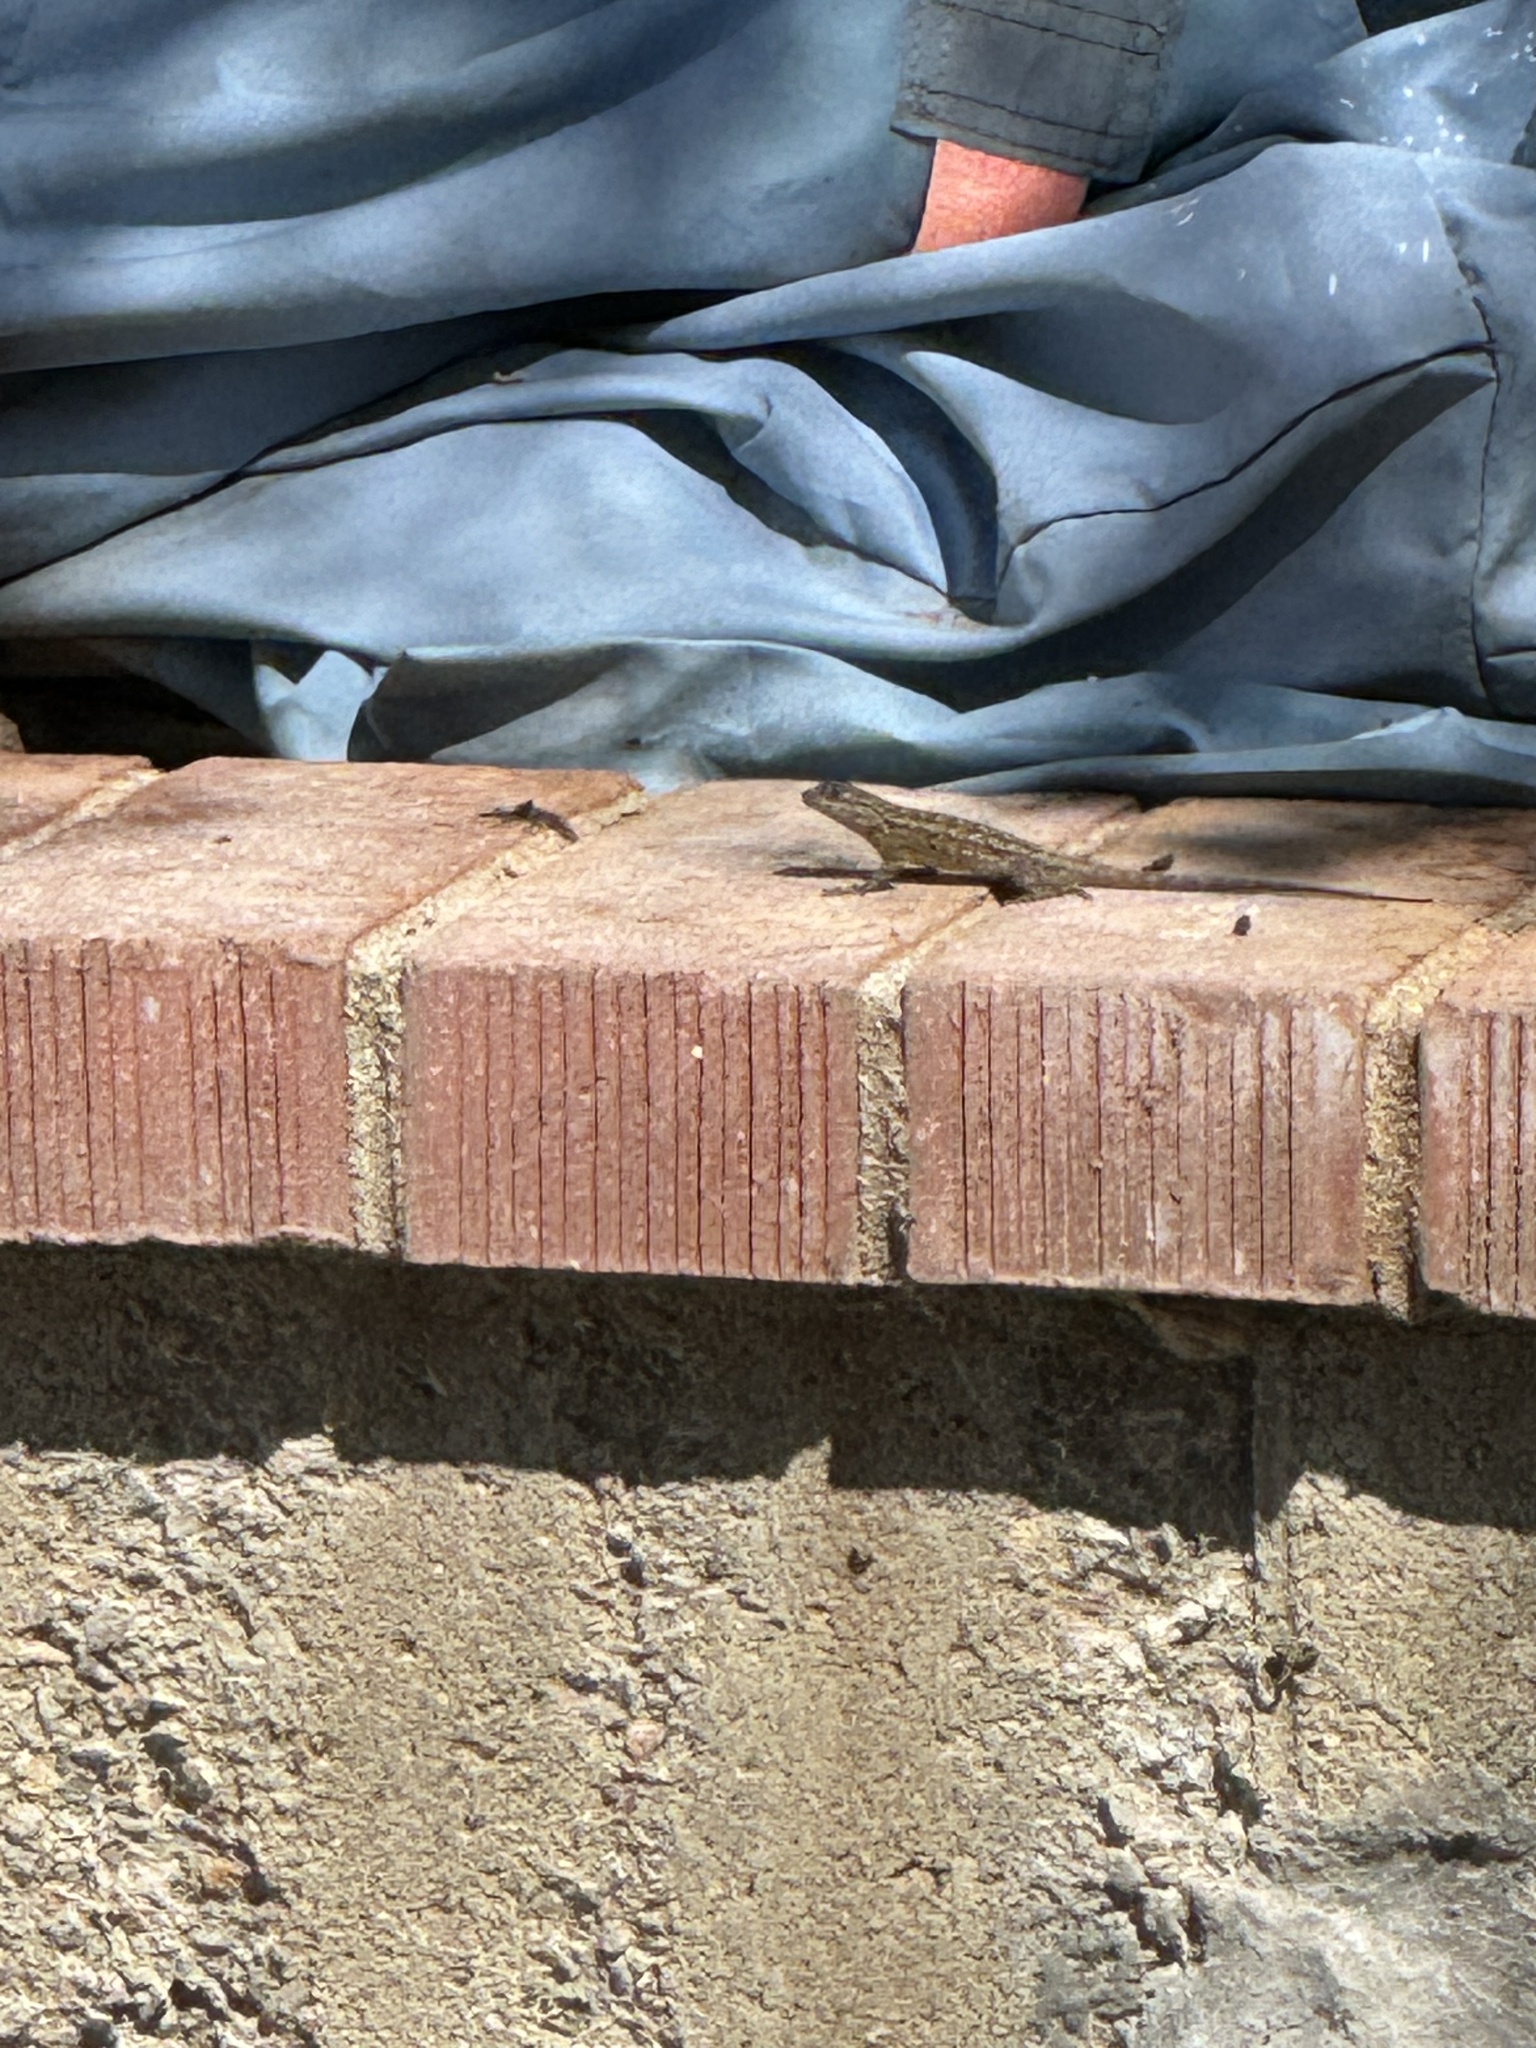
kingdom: Animalia
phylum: Chordata
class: Squamata
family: Phrynosomatidae
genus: Uta
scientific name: Uta stansburiana
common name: Side-blotched lizard
